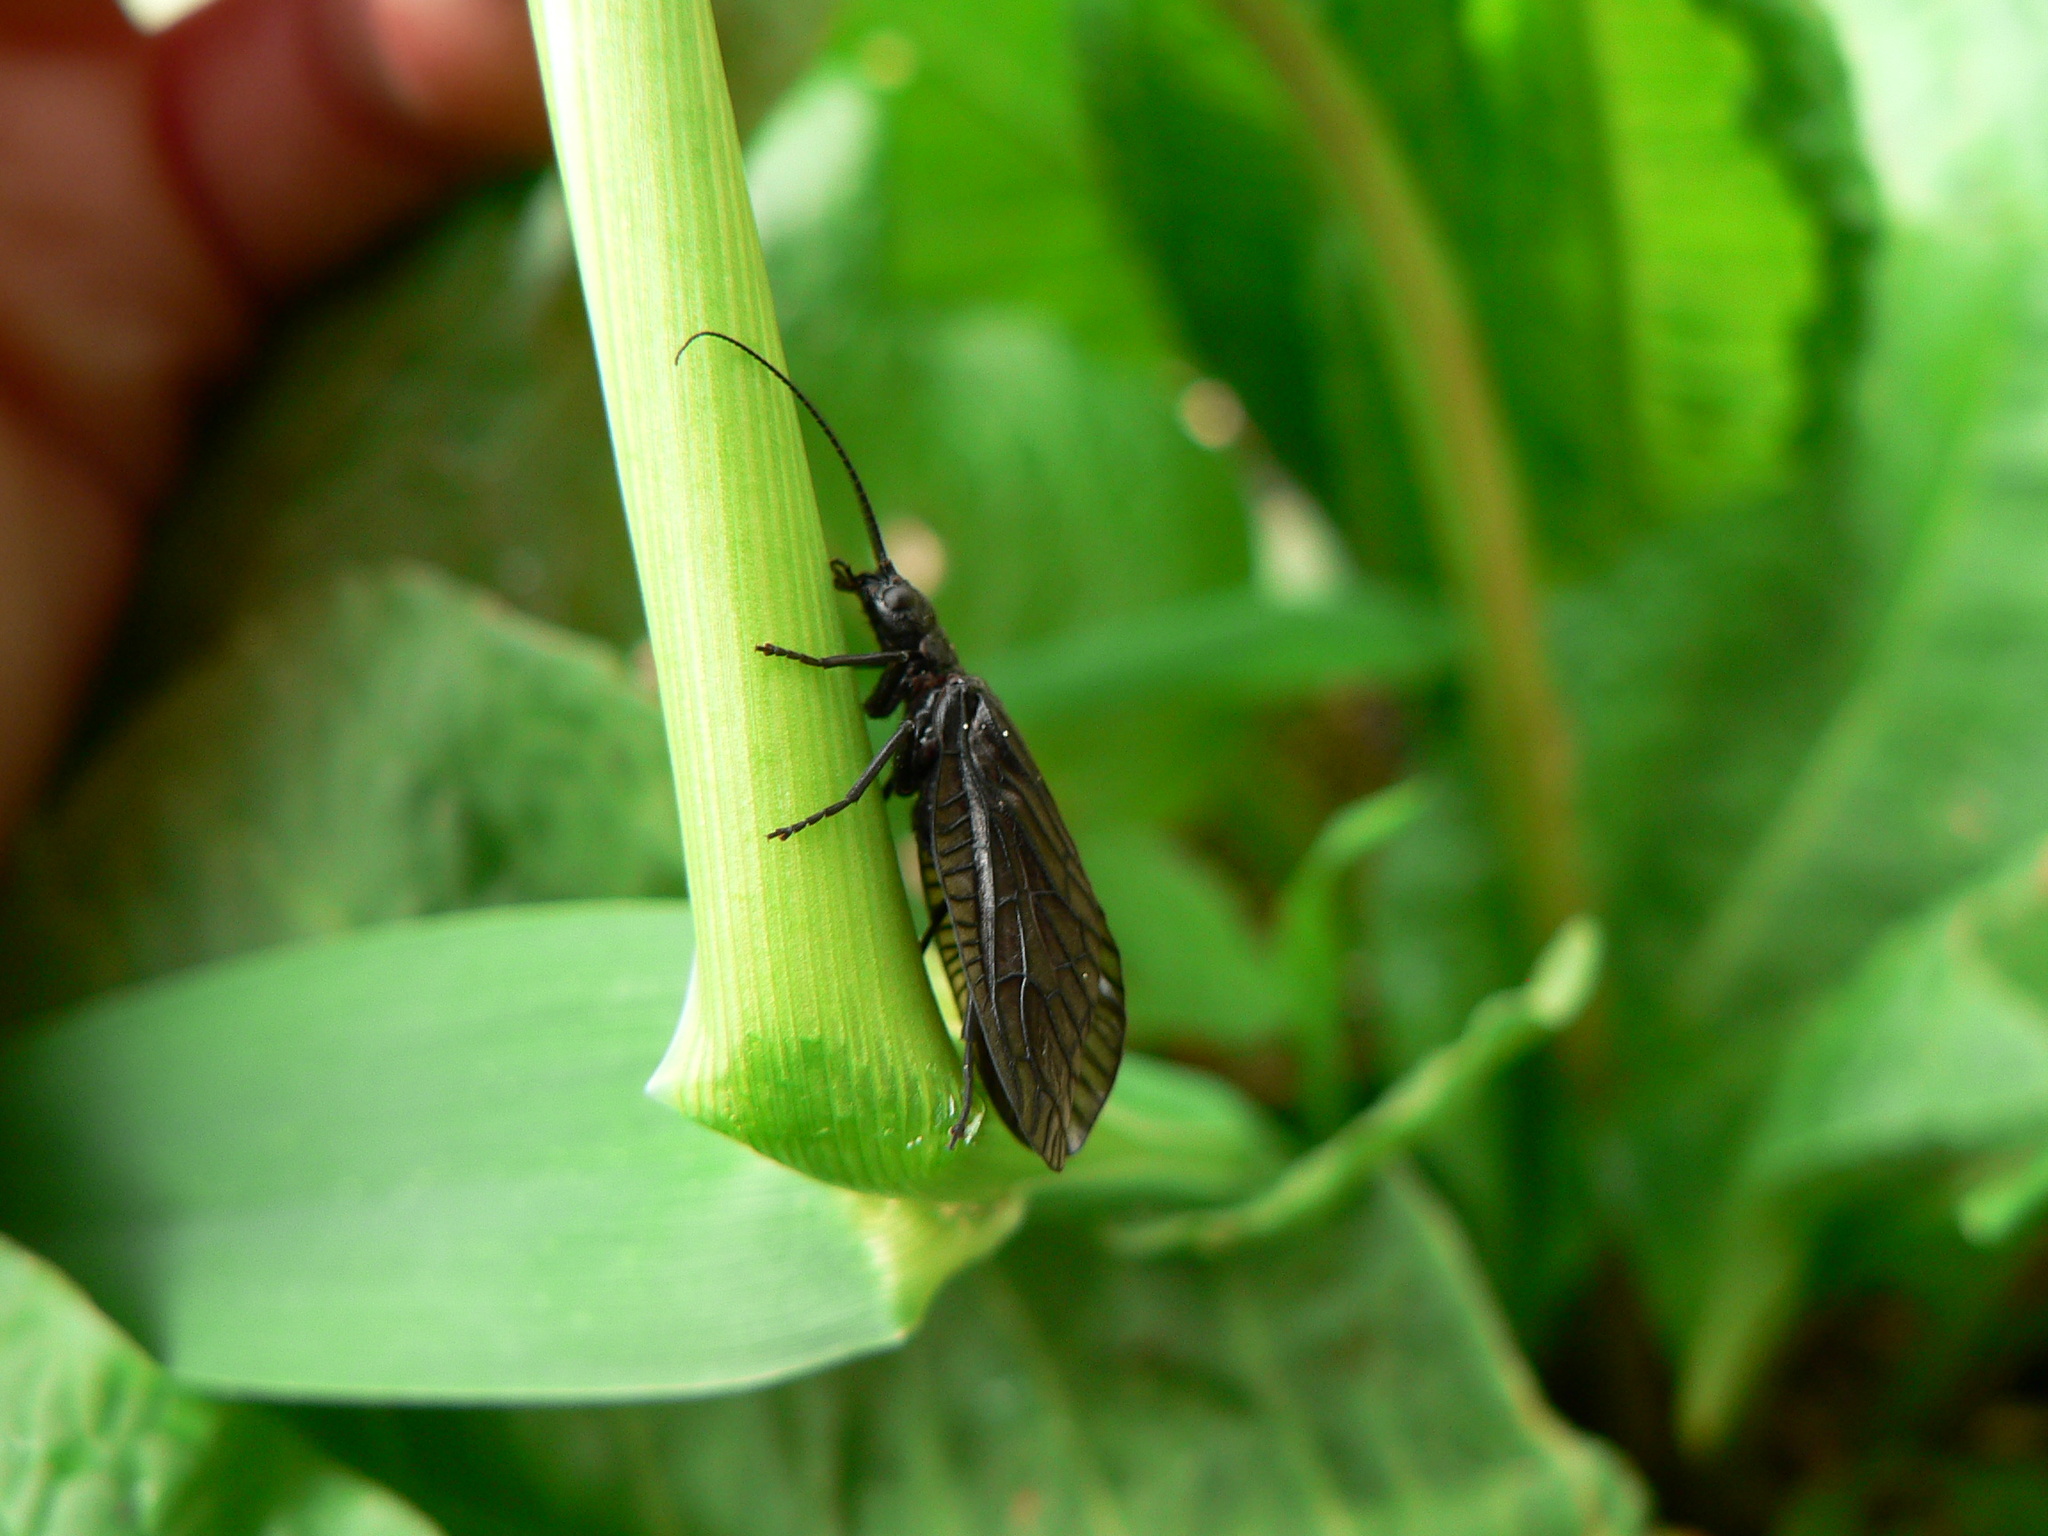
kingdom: Animalia
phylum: Arthropoda
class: Insecta
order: Megaloptera
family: Sialidae
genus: Sialis
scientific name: Sialis
